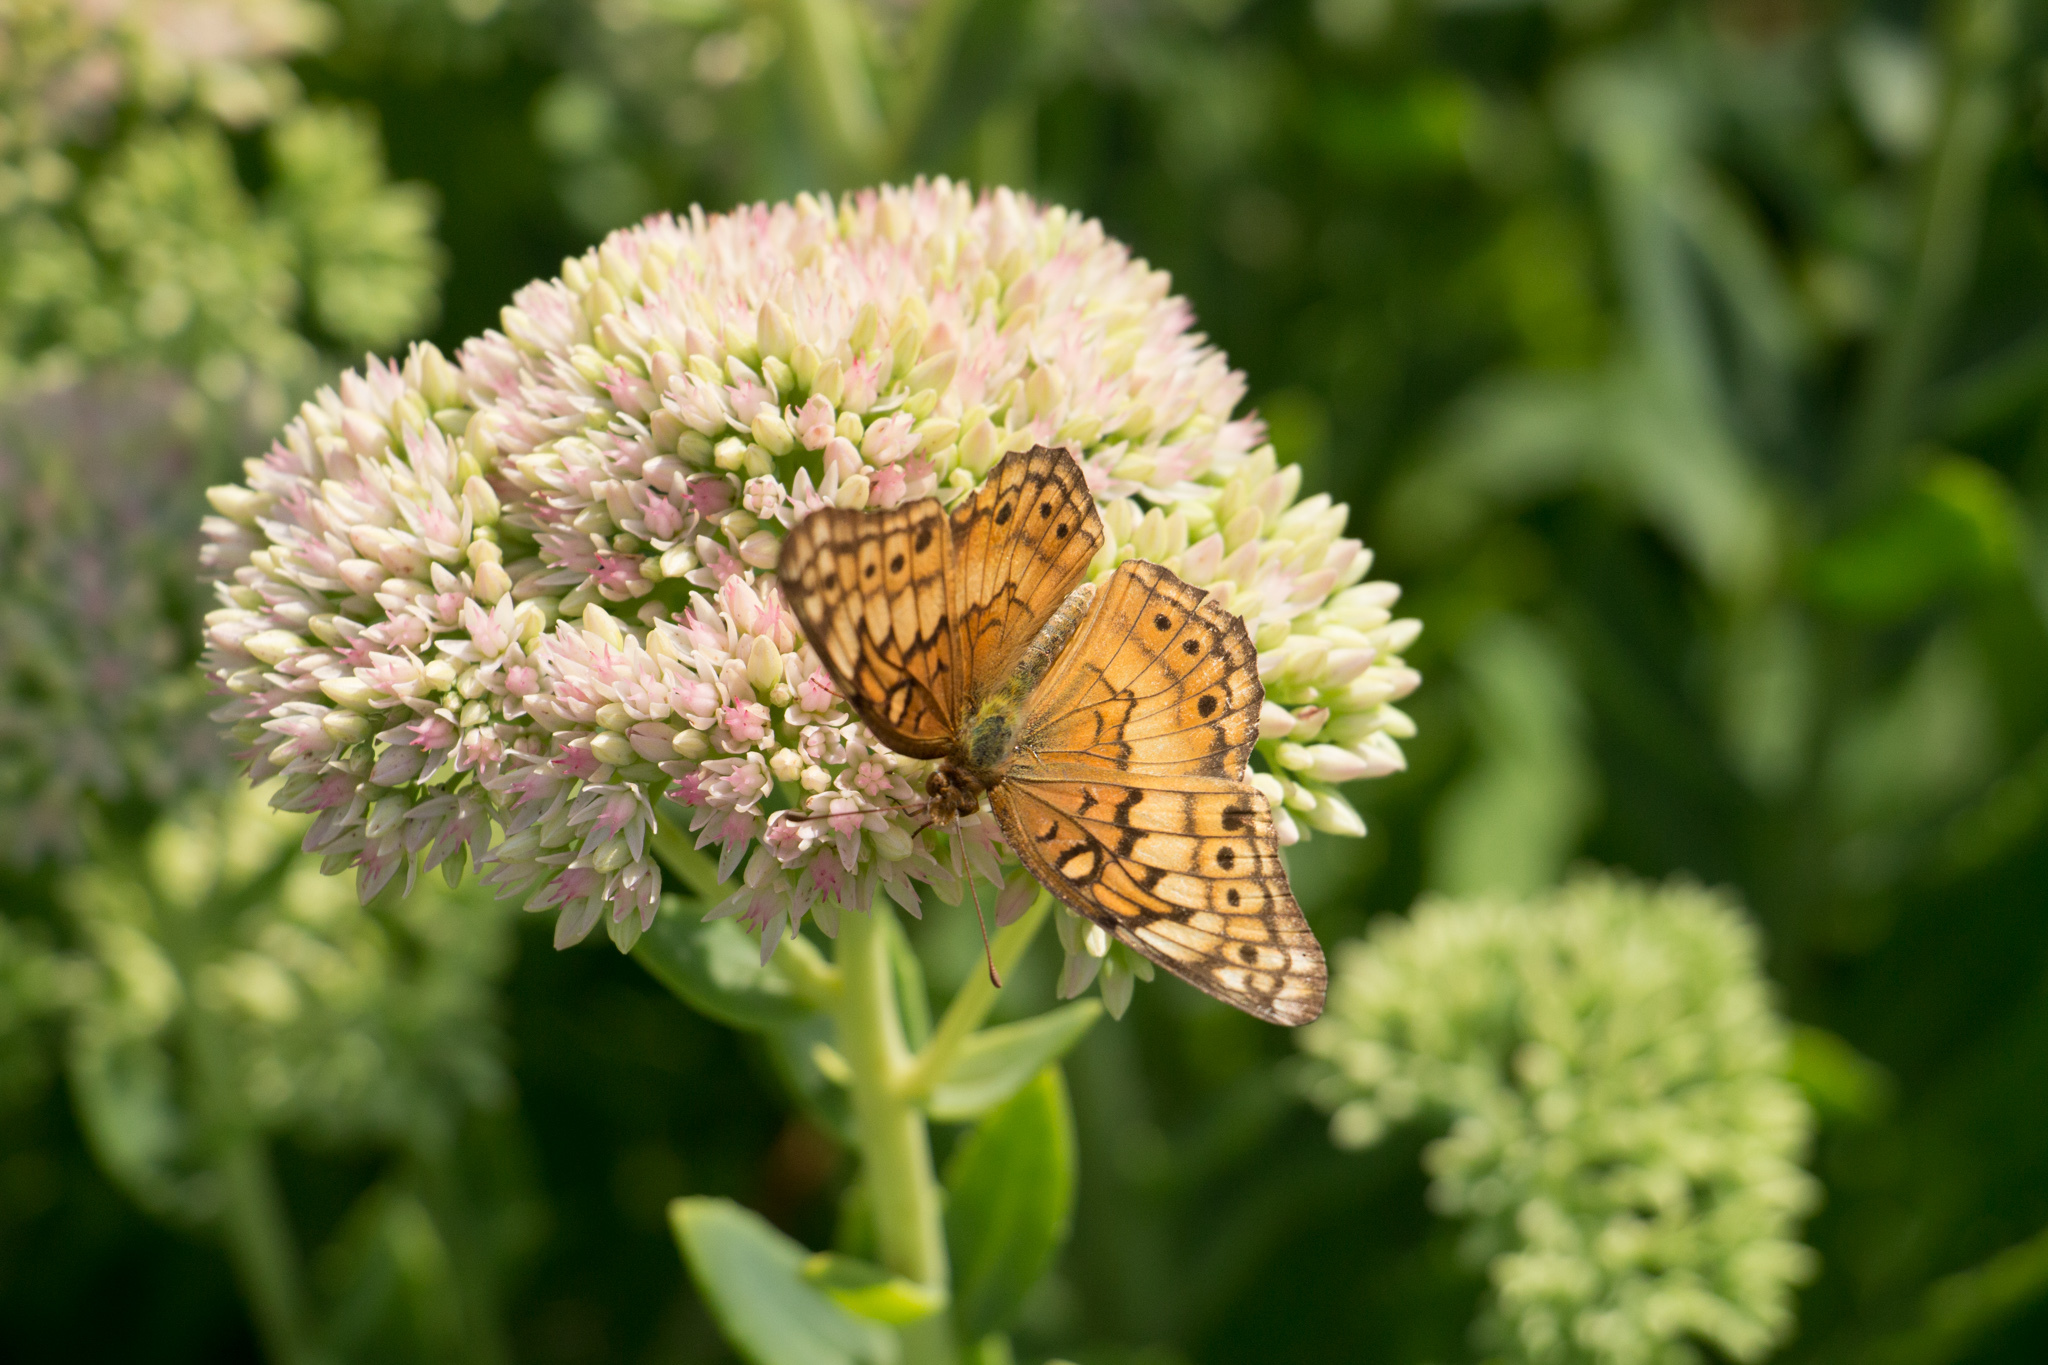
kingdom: Animalia
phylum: Arthropoda
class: Insecta
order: Lepidoptera
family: Nymphalidae
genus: Euptoieta
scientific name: Euptoieta claudia
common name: Variegated fritillary
